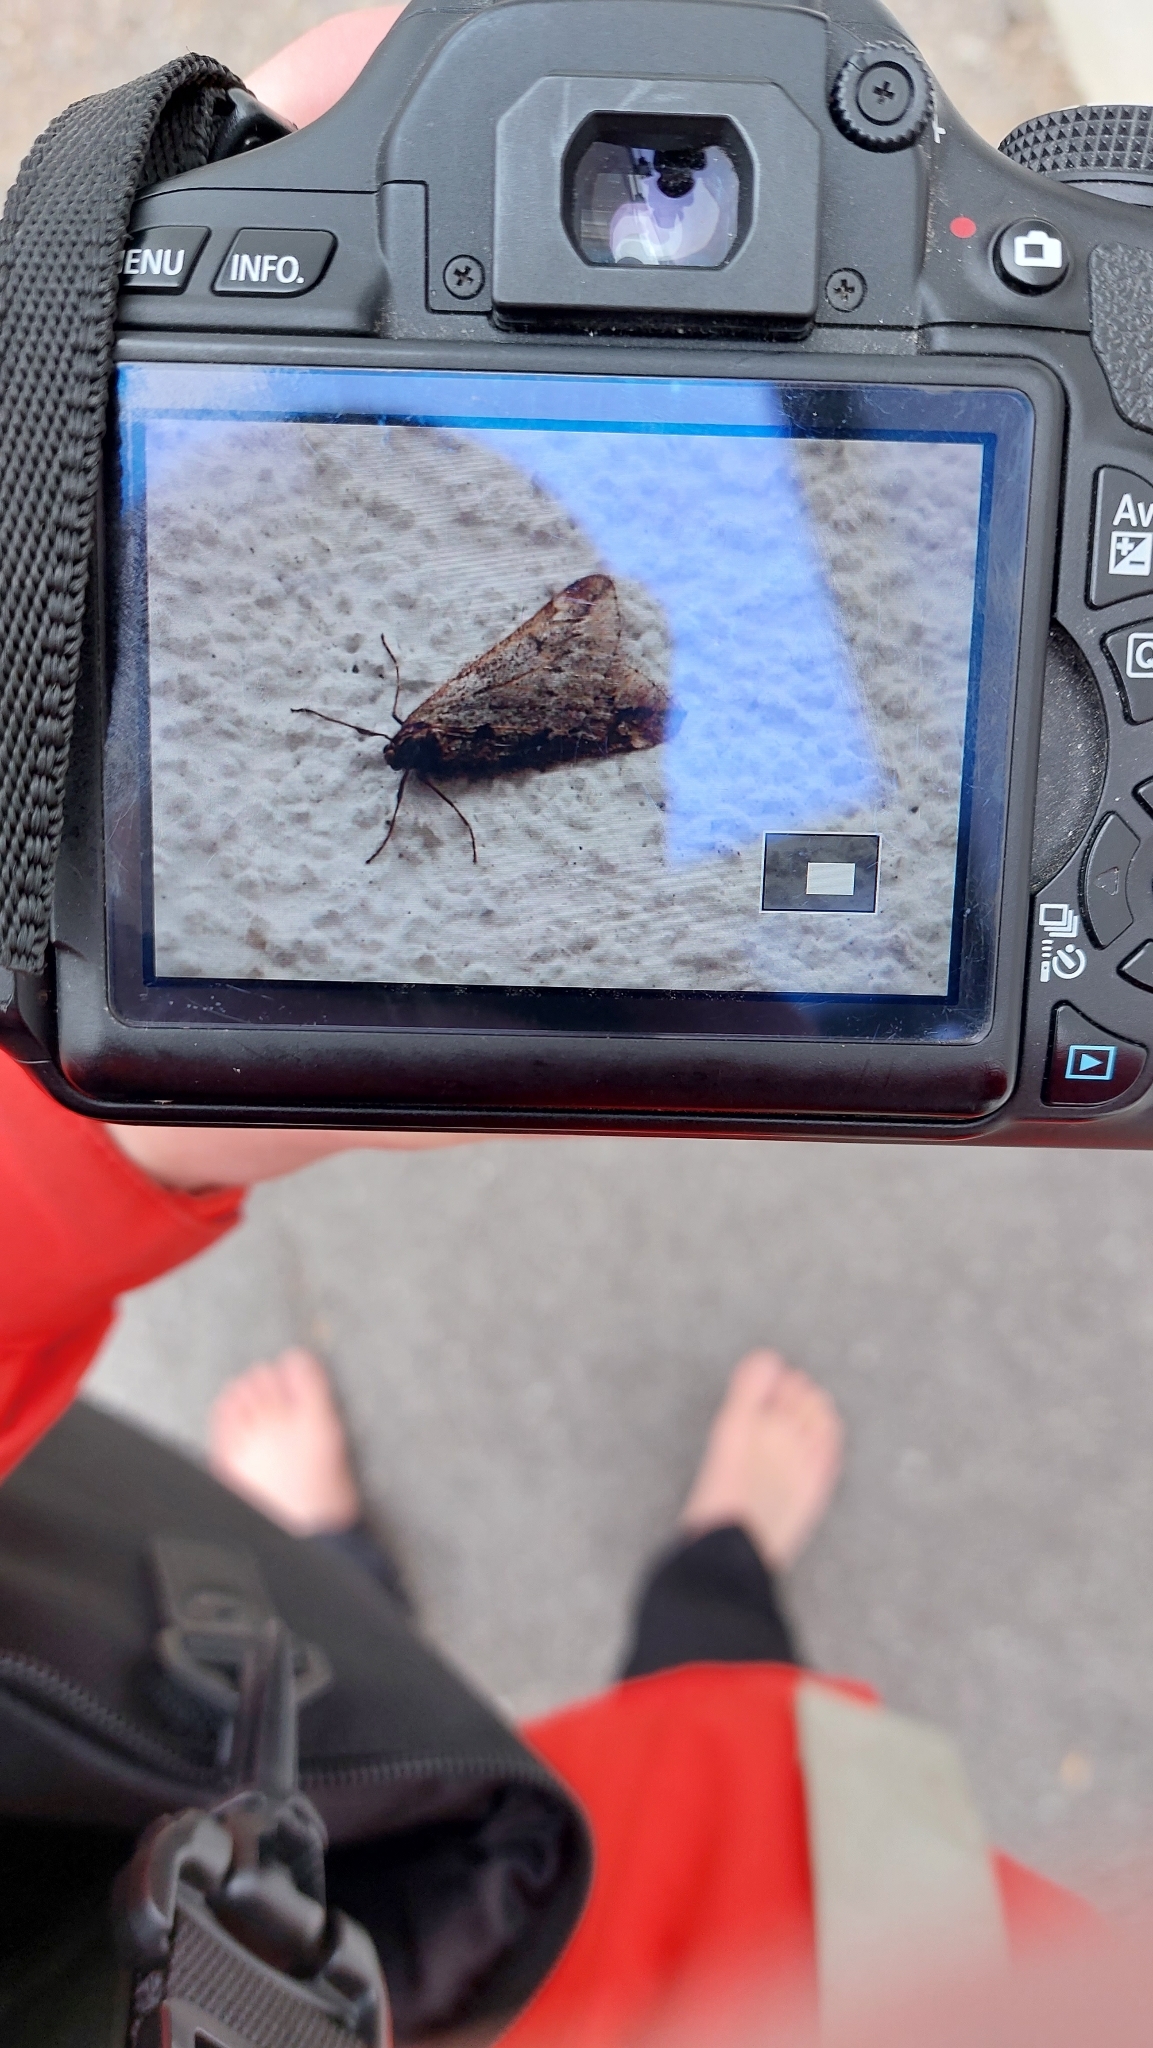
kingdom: Animalia
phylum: Arthropoda
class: Insecta
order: Lepidoptera
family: Geometridae
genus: Alsophila
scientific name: Alsophila aescularia
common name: March moth
